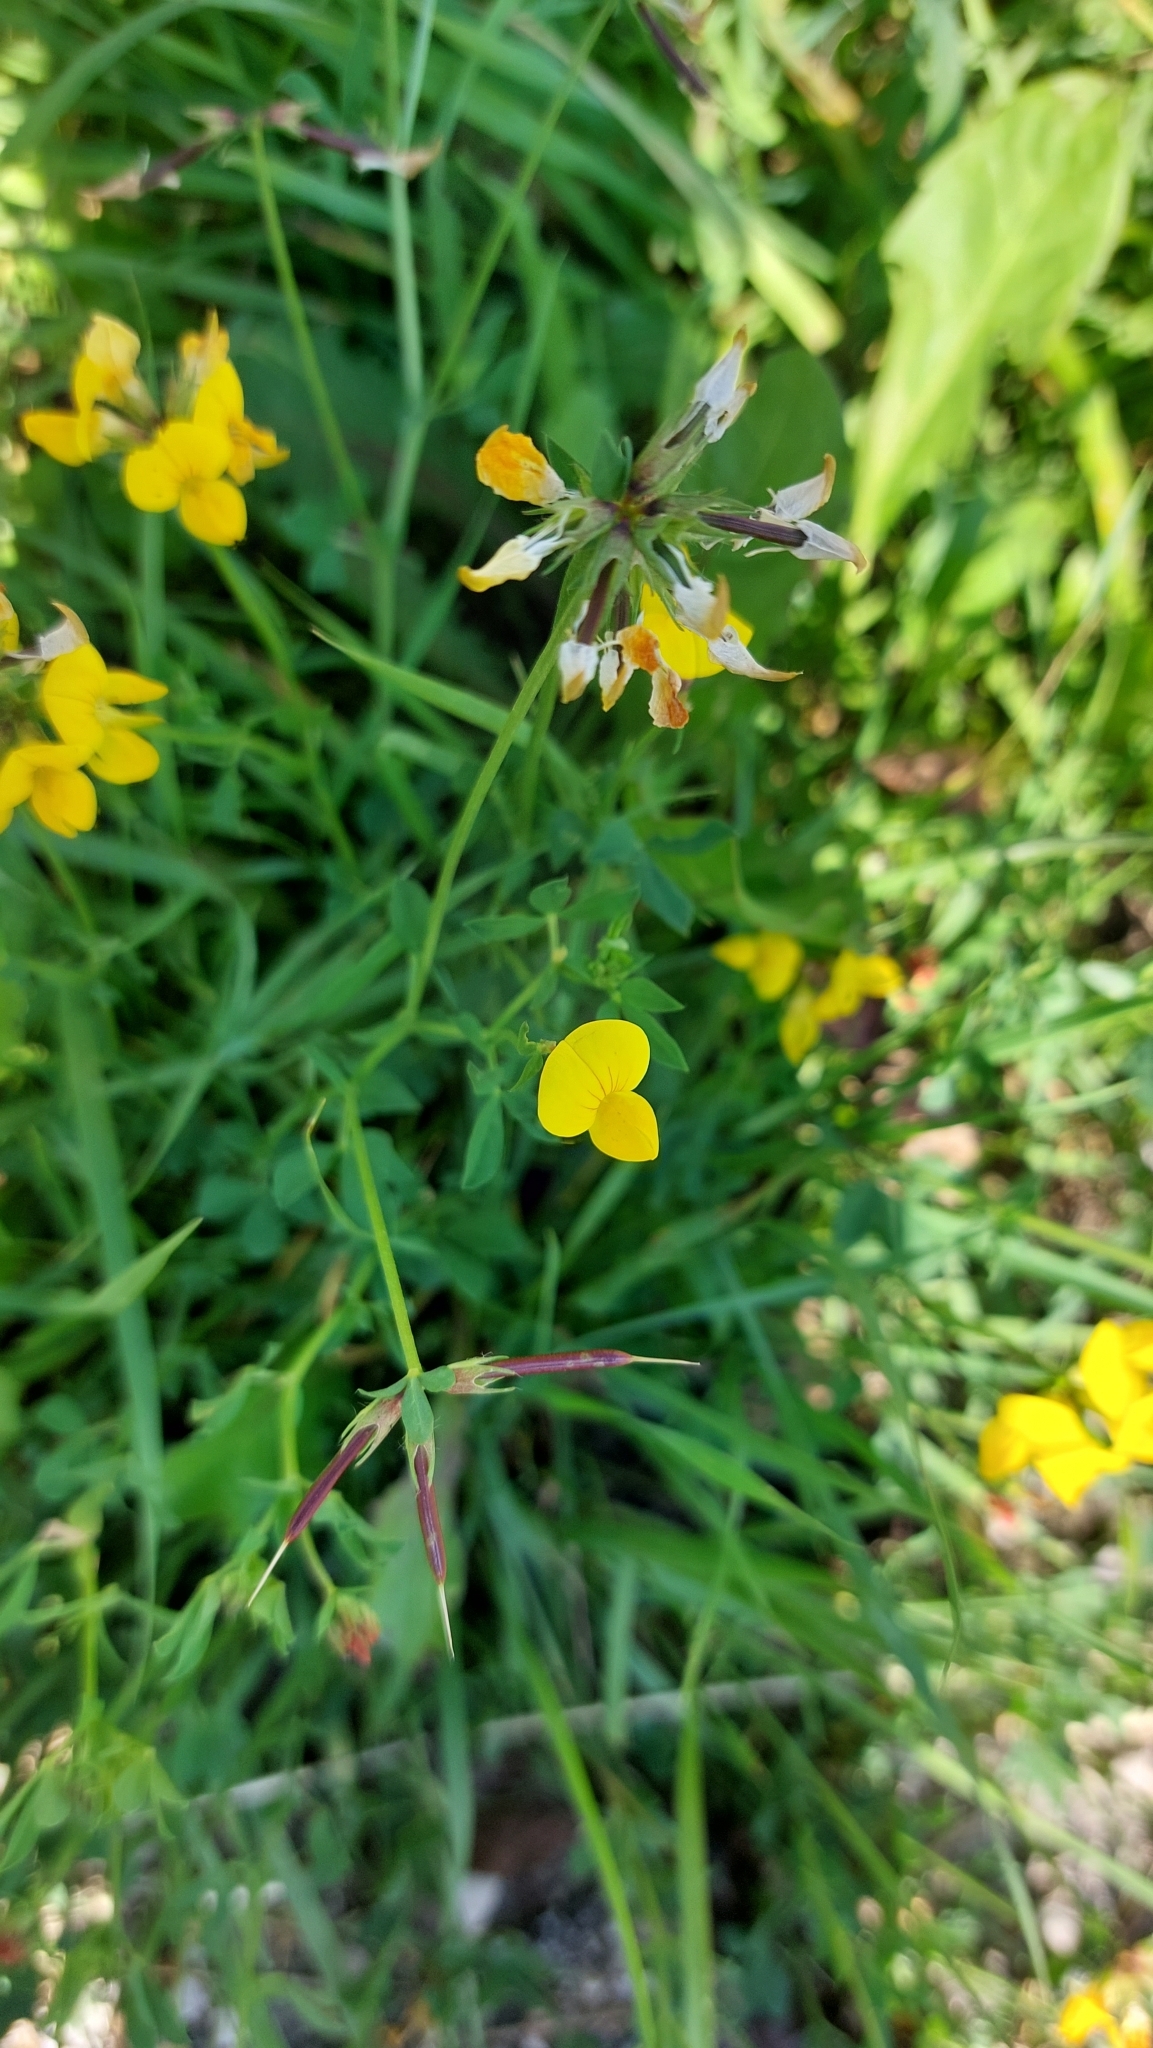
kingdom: Plantae
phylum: Tracheophyta
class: Magnoliopsida
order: Fabales
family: Fabaceae
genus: Lotus
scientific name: Lotus corniculatus
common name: Common bird's-foot-trefoil
